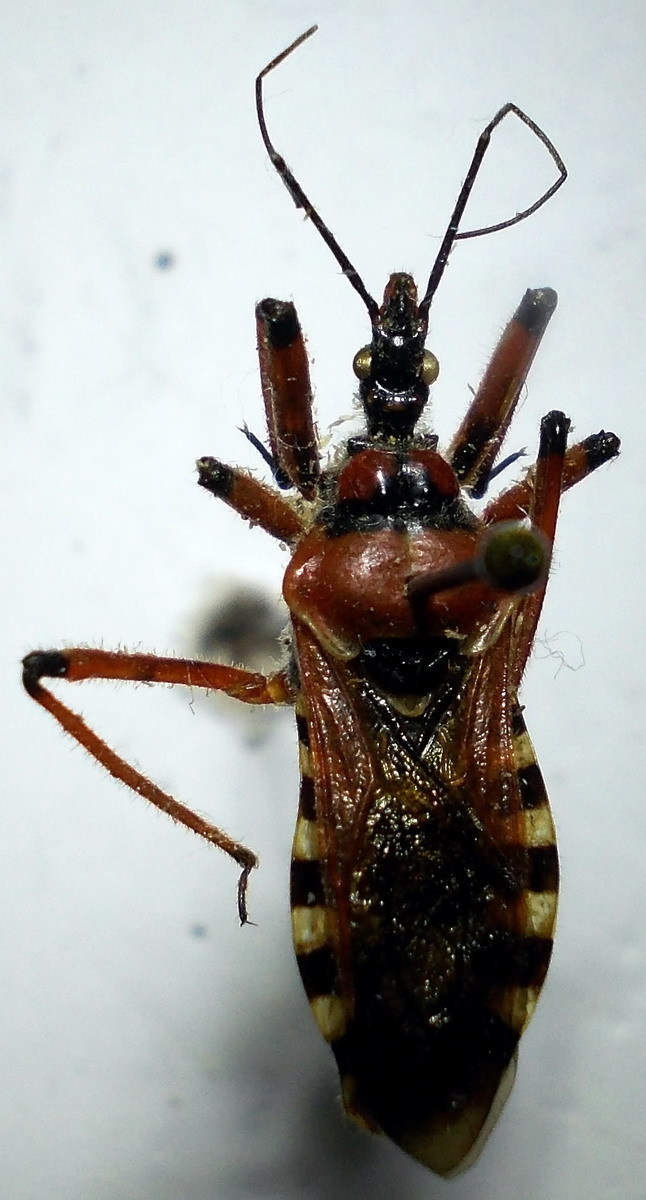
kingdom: Animalia
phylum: Arthropoda
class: Insecta
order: Hemiptera
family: Reduviidae
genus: Rhynocoris
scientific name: Rhynocoris iracundus
